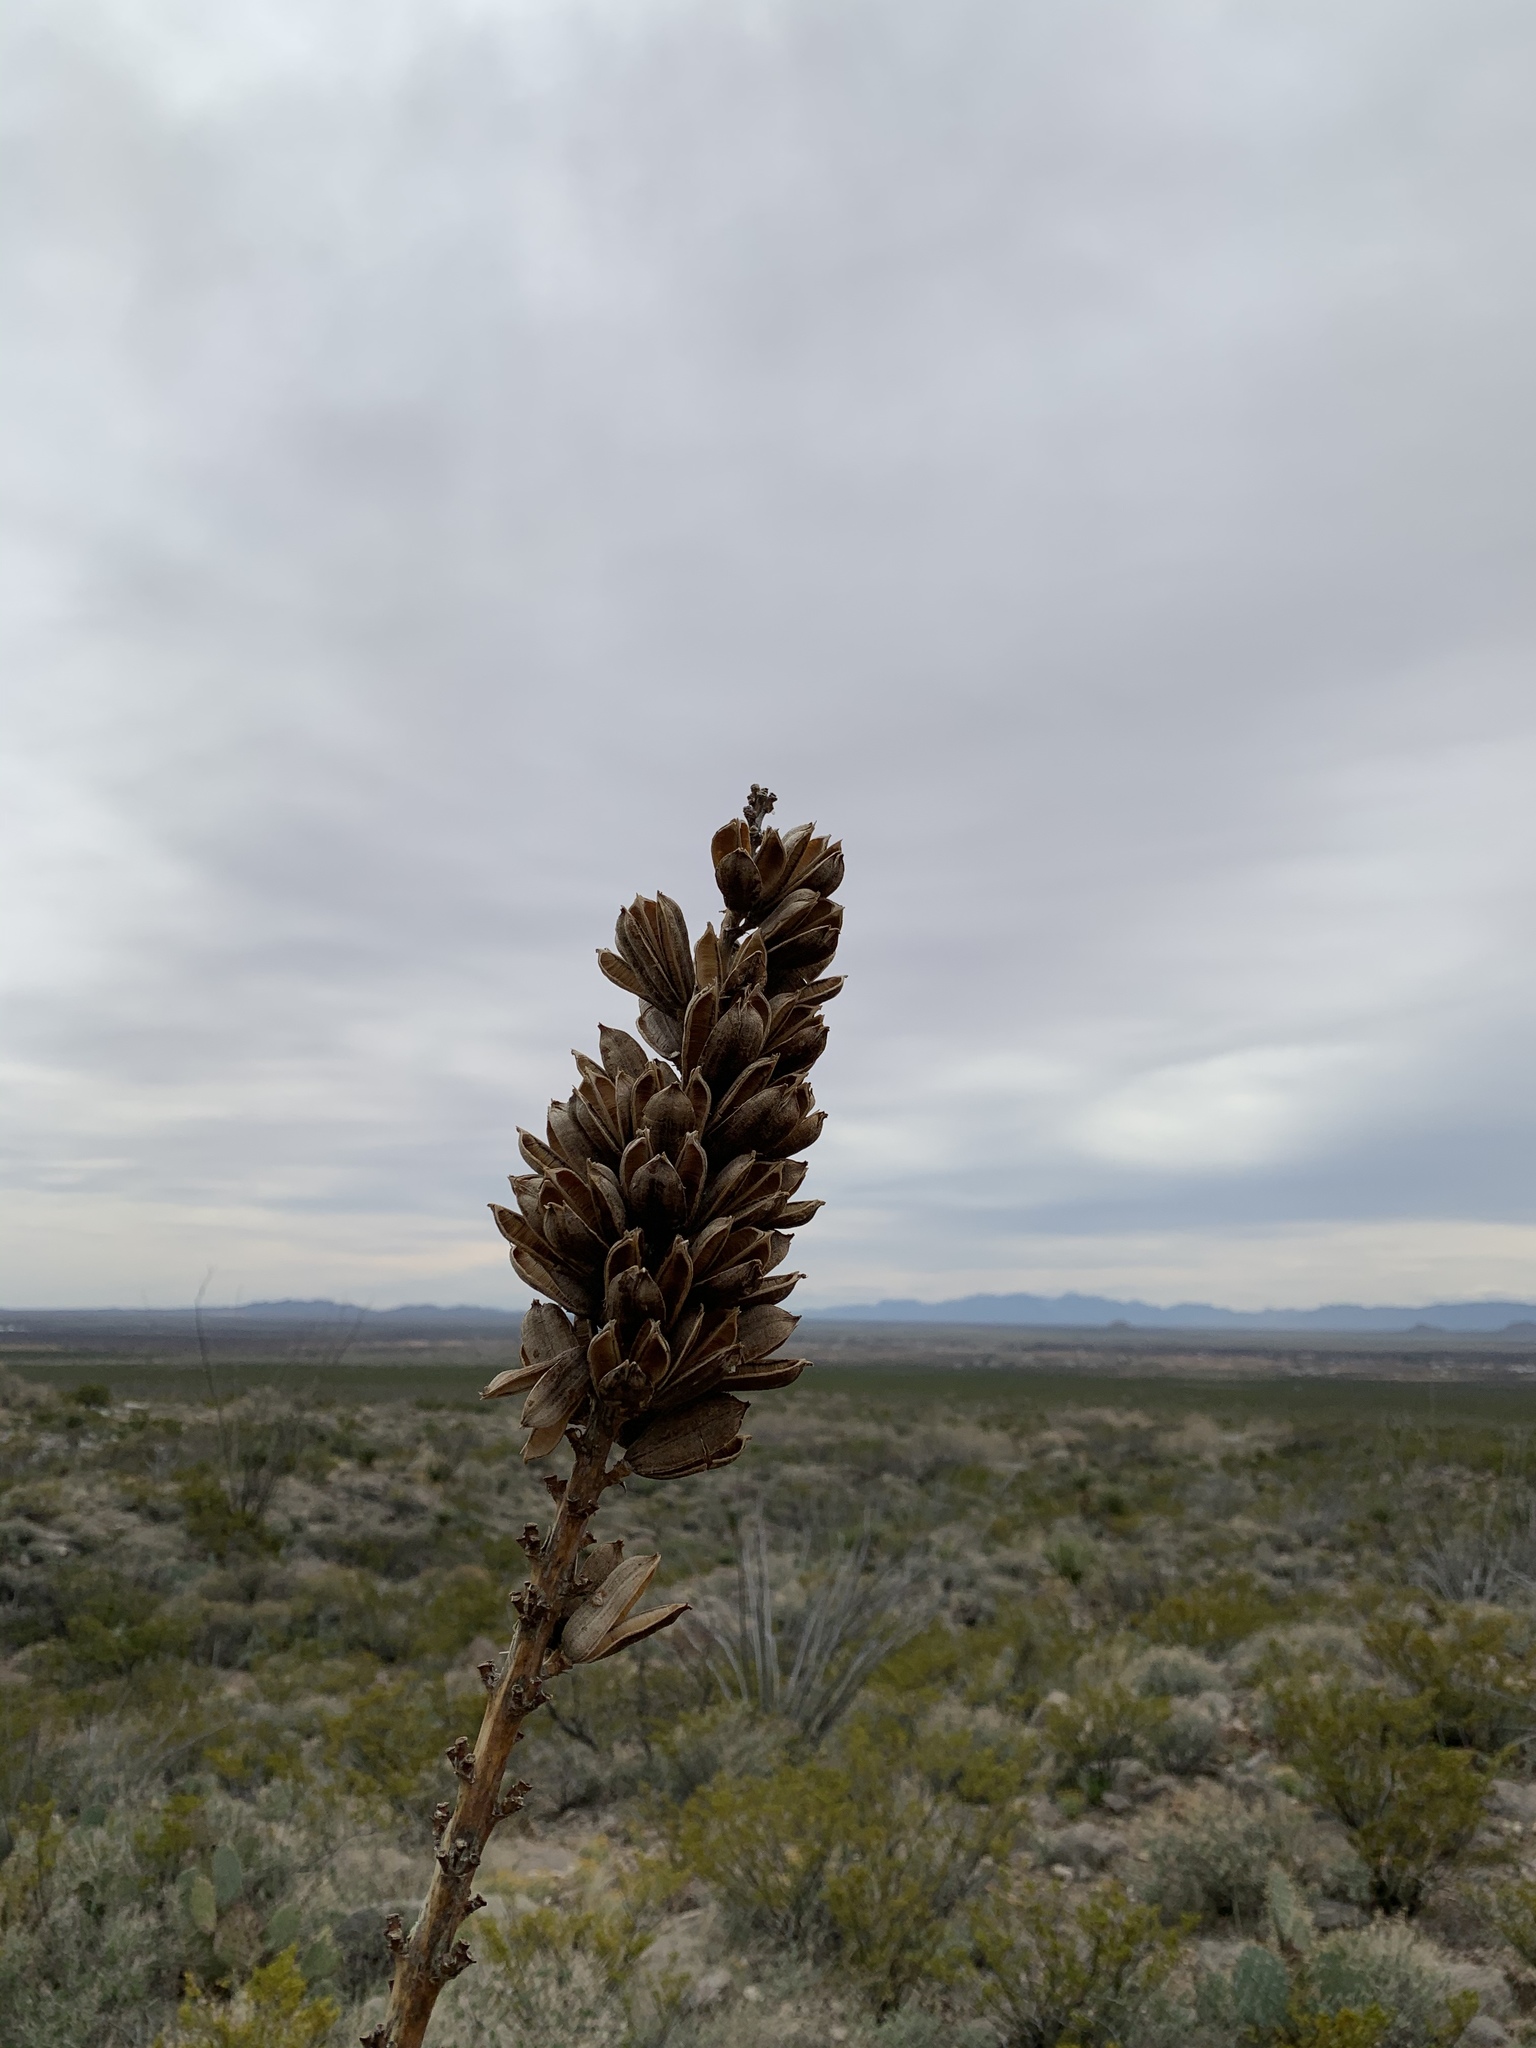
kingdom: Plantae
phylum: Tracheophyta
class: Liliopsida
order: Asparagales
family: Asparagaceae
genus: Agave
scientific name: Agave lechuguilla
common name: Lecheguilla agave
